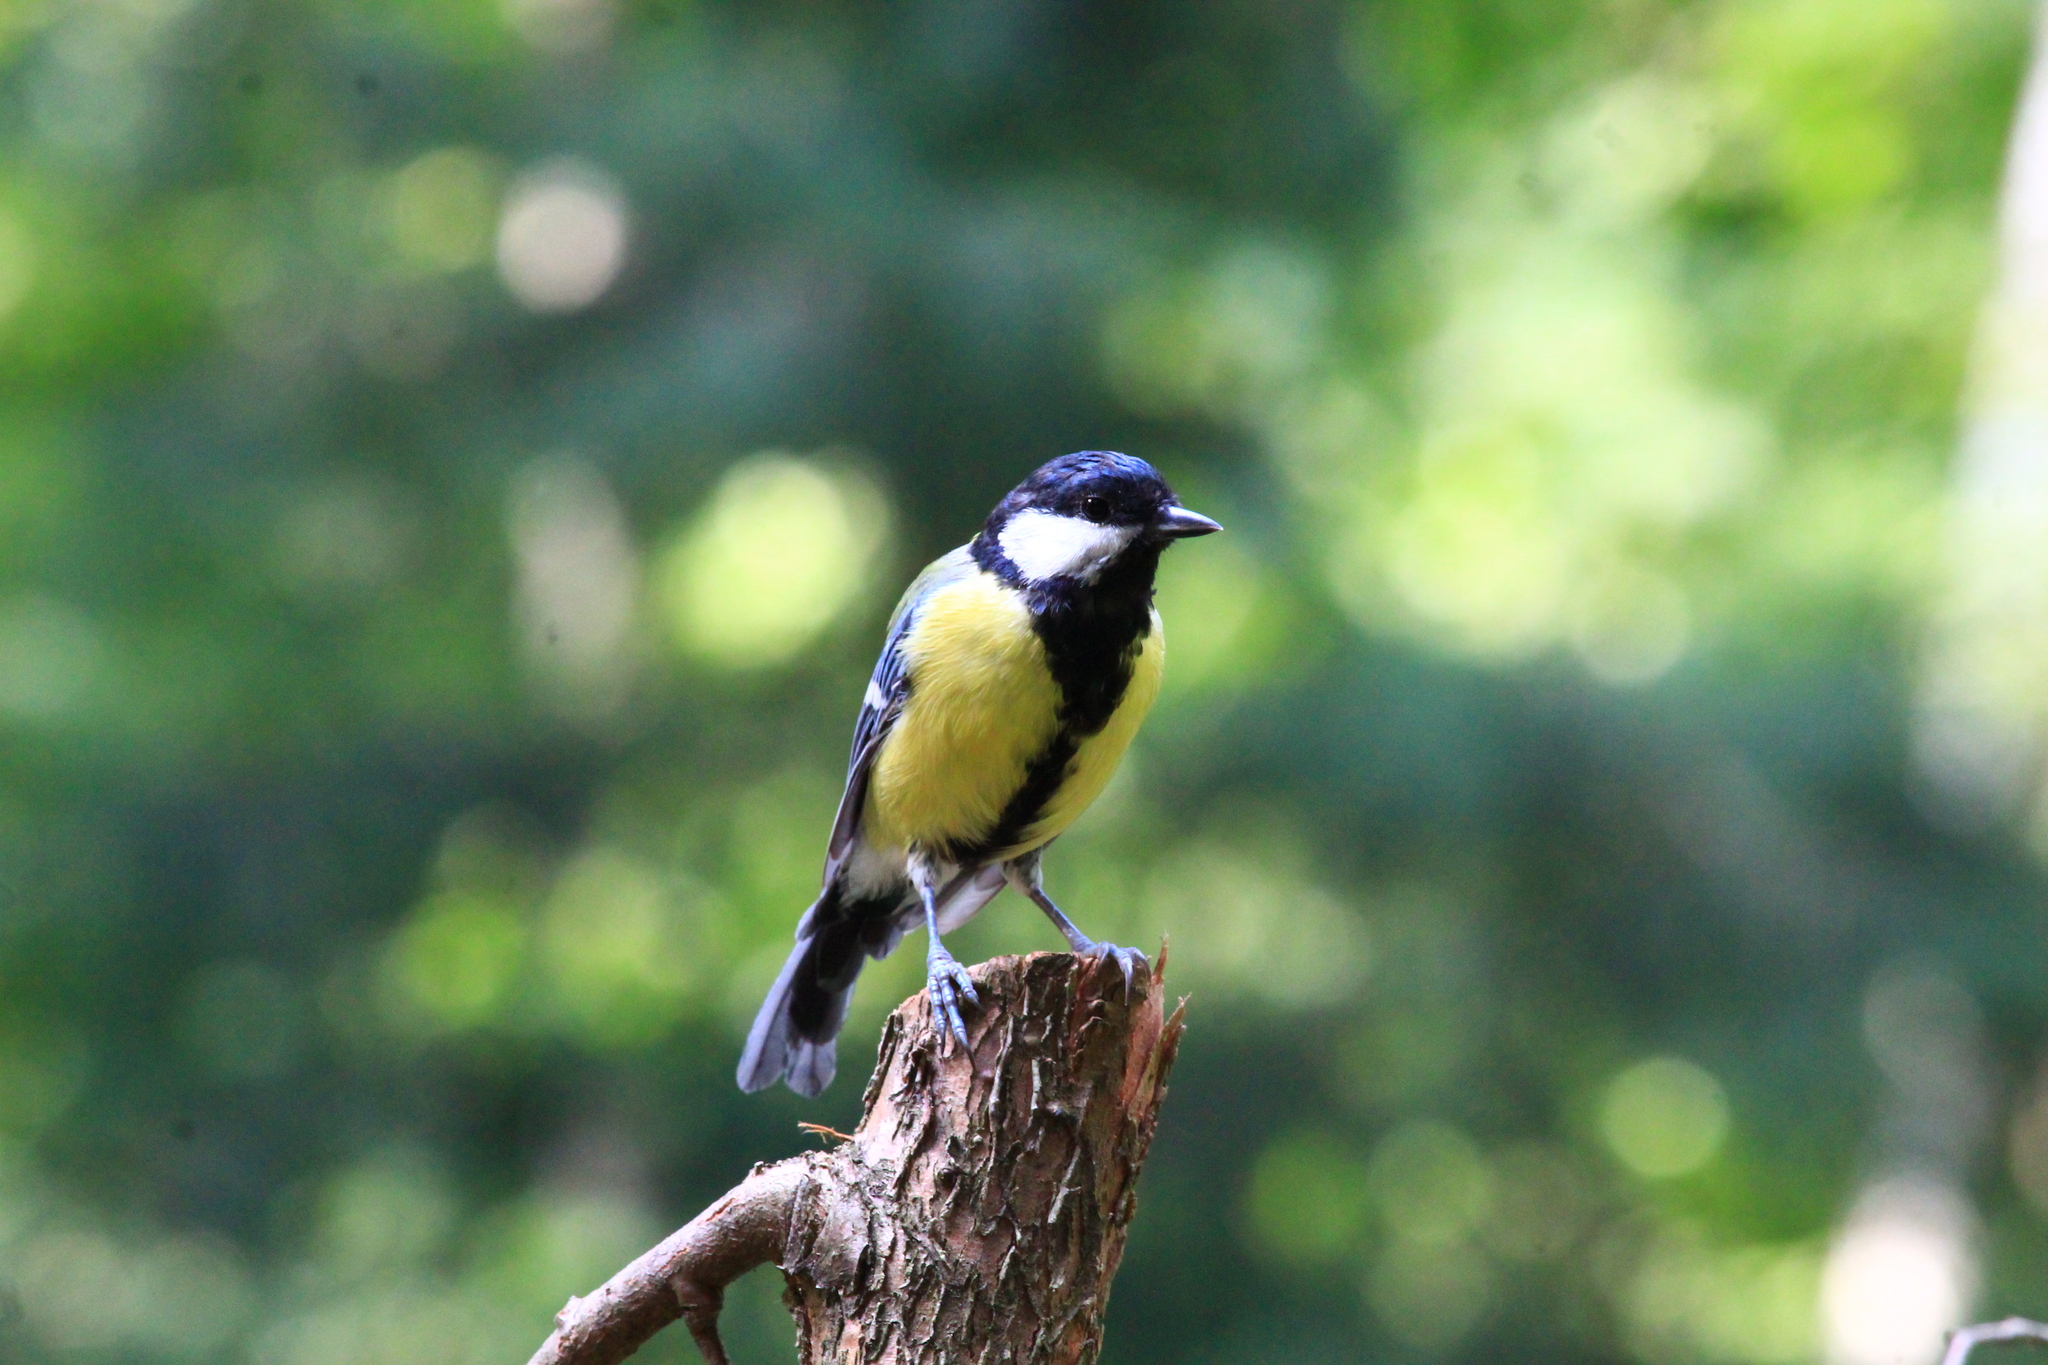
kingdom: Animalia
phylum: Chordata
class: Aves
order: Passeriformes
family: Paridae
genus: Parus
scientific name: Parus major
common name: Great tit
